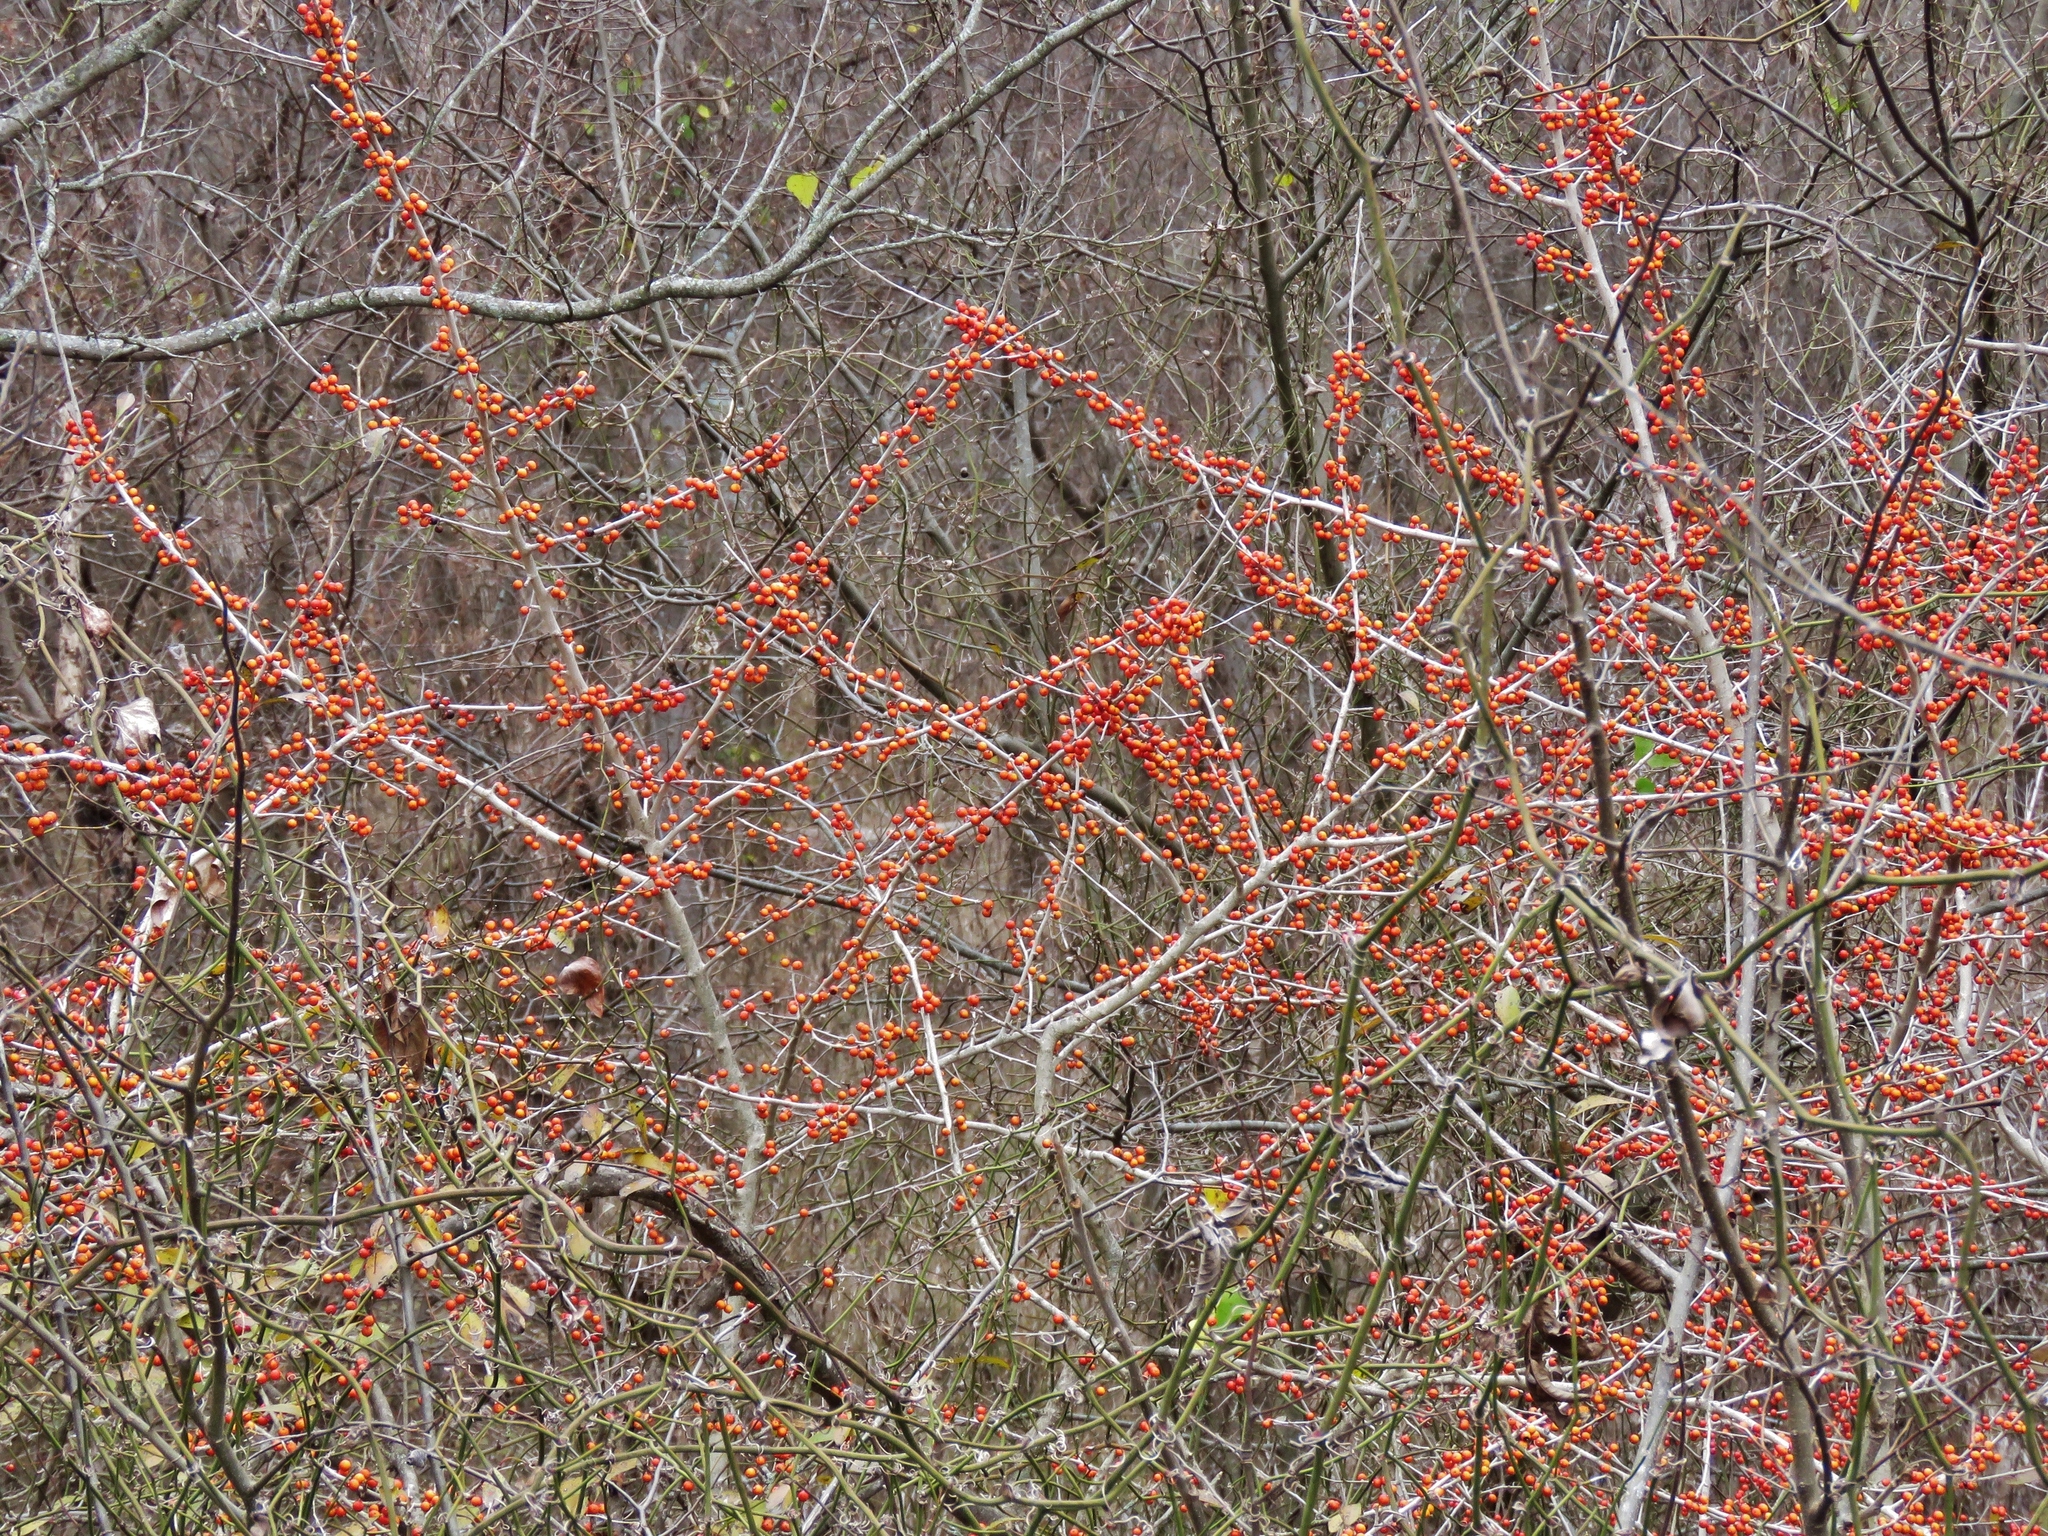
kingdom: Plantae
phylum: Tracheophyta
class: Magnoliopsida
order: Aquifoliales
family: Aquifoliaceae
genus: Ilex
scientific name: Ilex decidua
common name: Possum-haw
